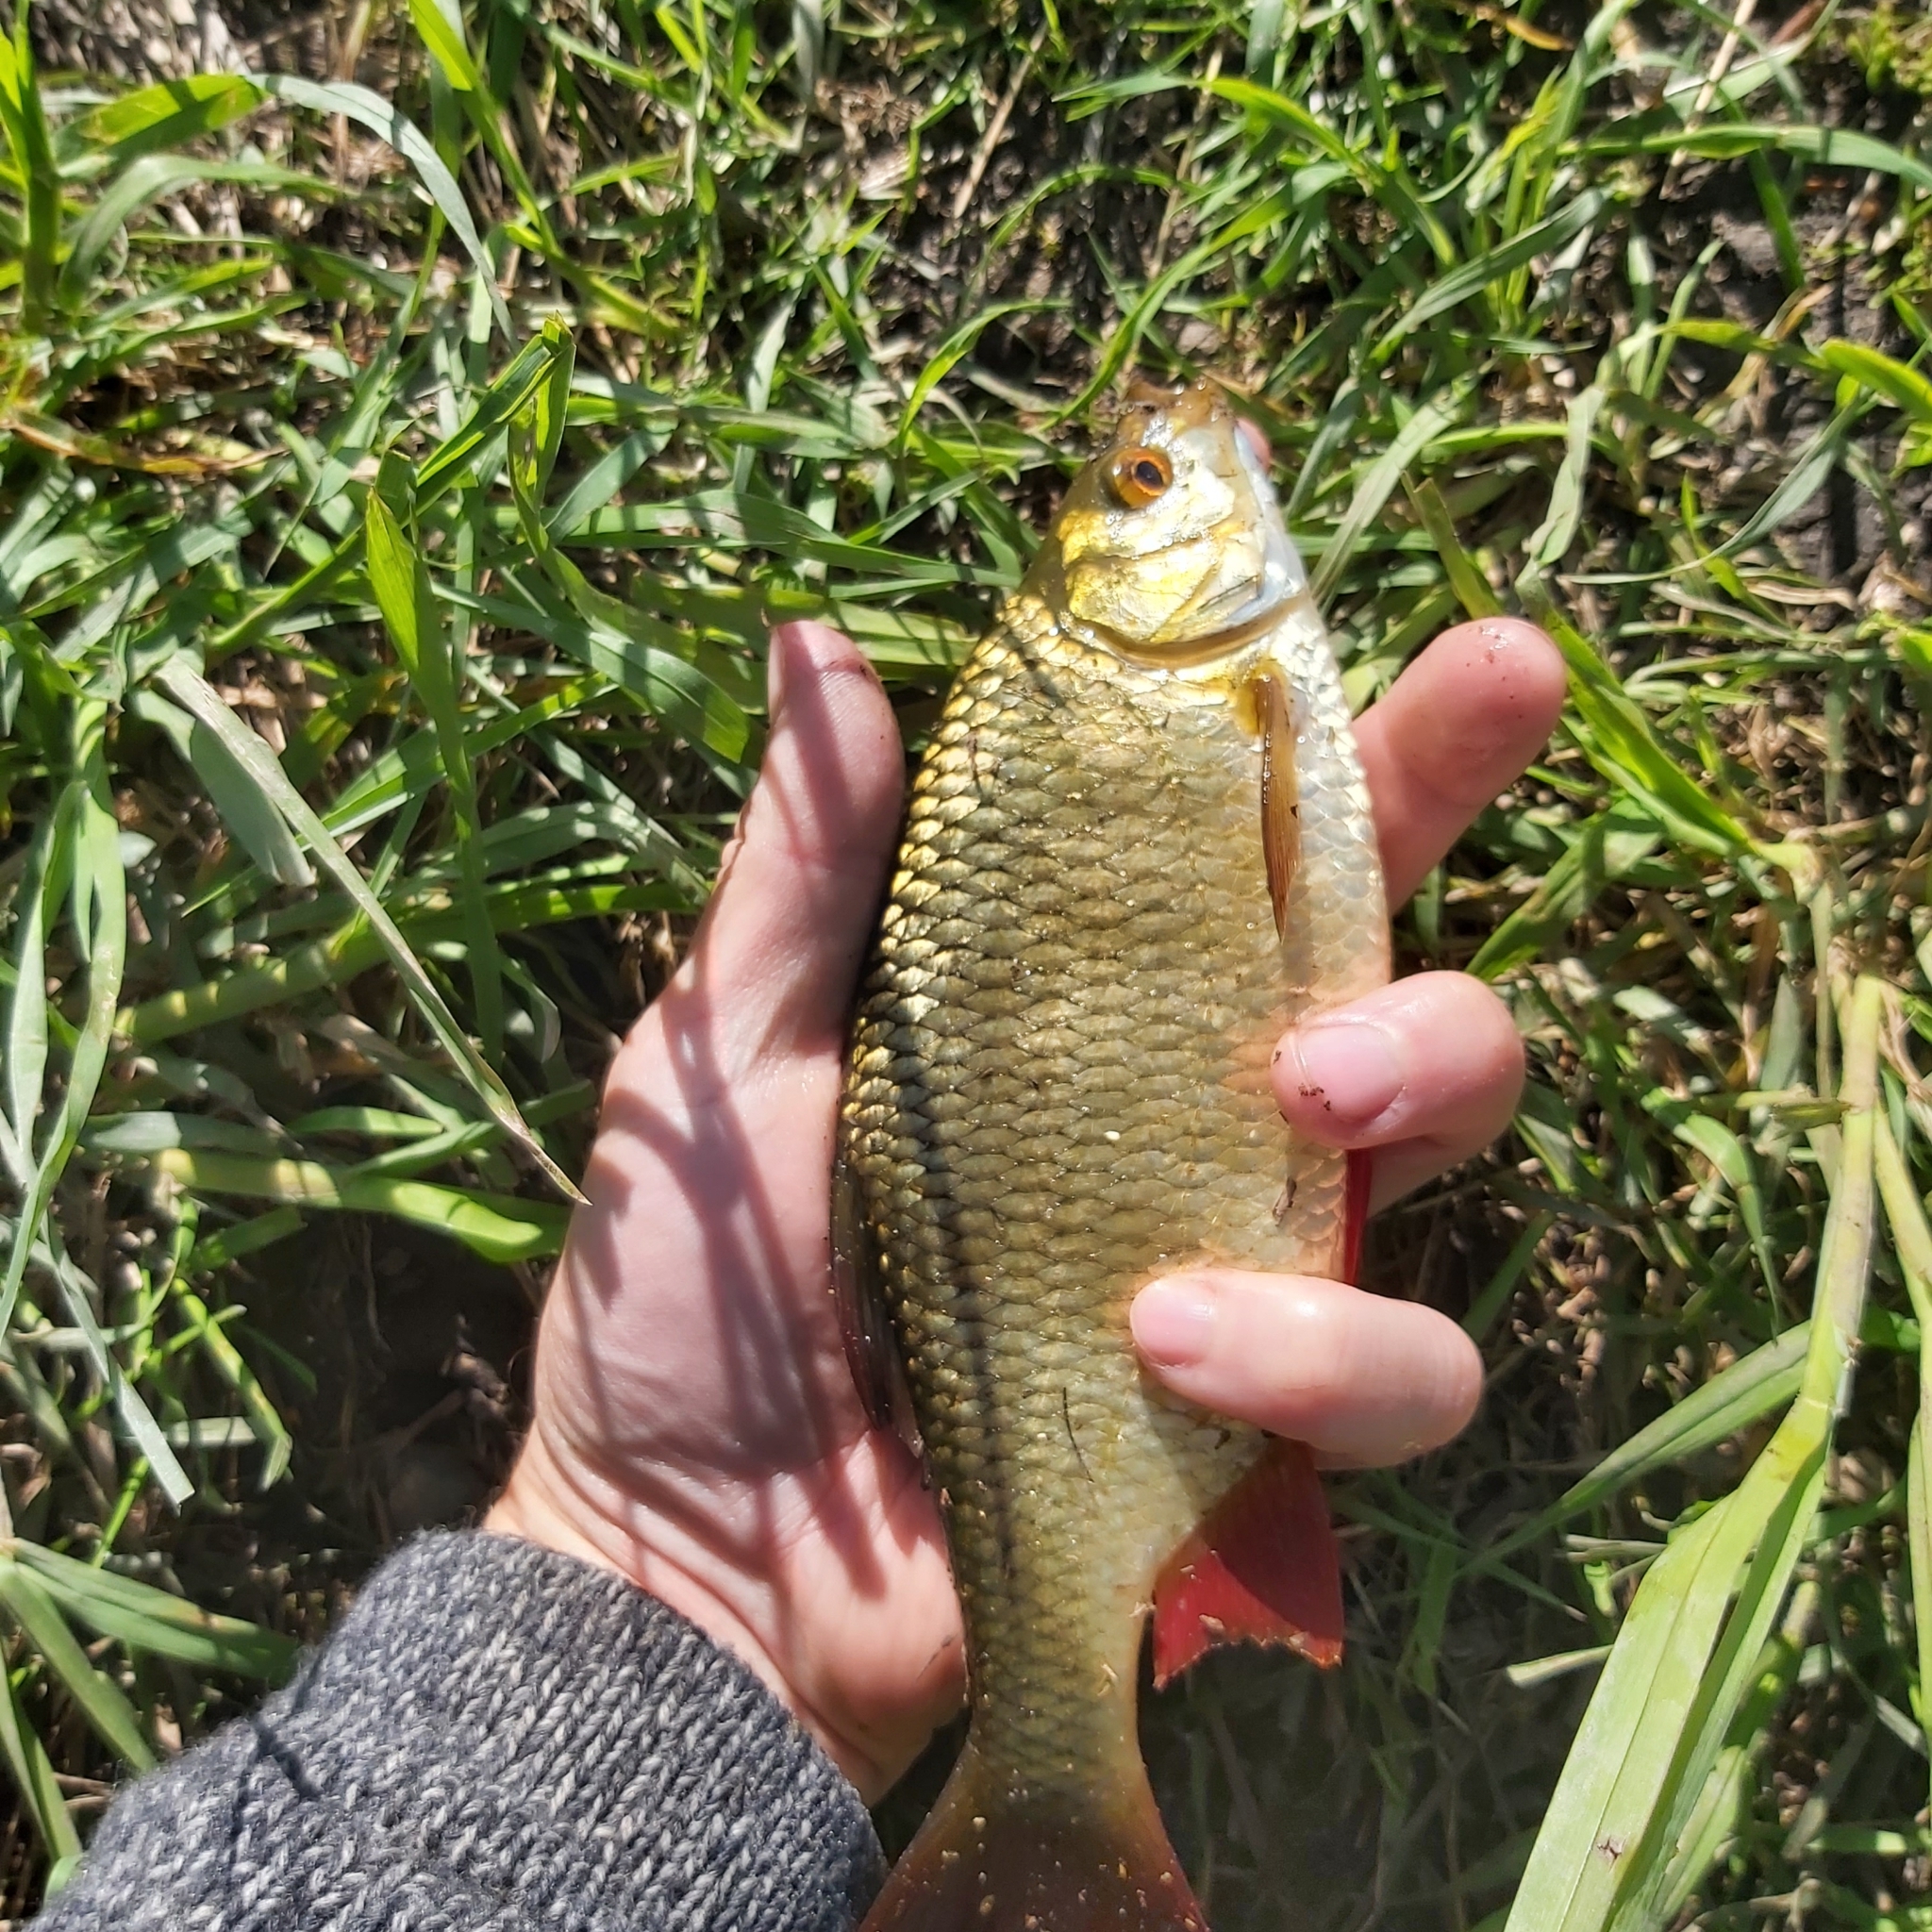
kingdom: Animalia
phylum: Chordata
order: Cypriniformes
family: Cyprinidae
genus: Scardinius
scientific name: Scardinius erythrophthalmus
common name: Rudd
